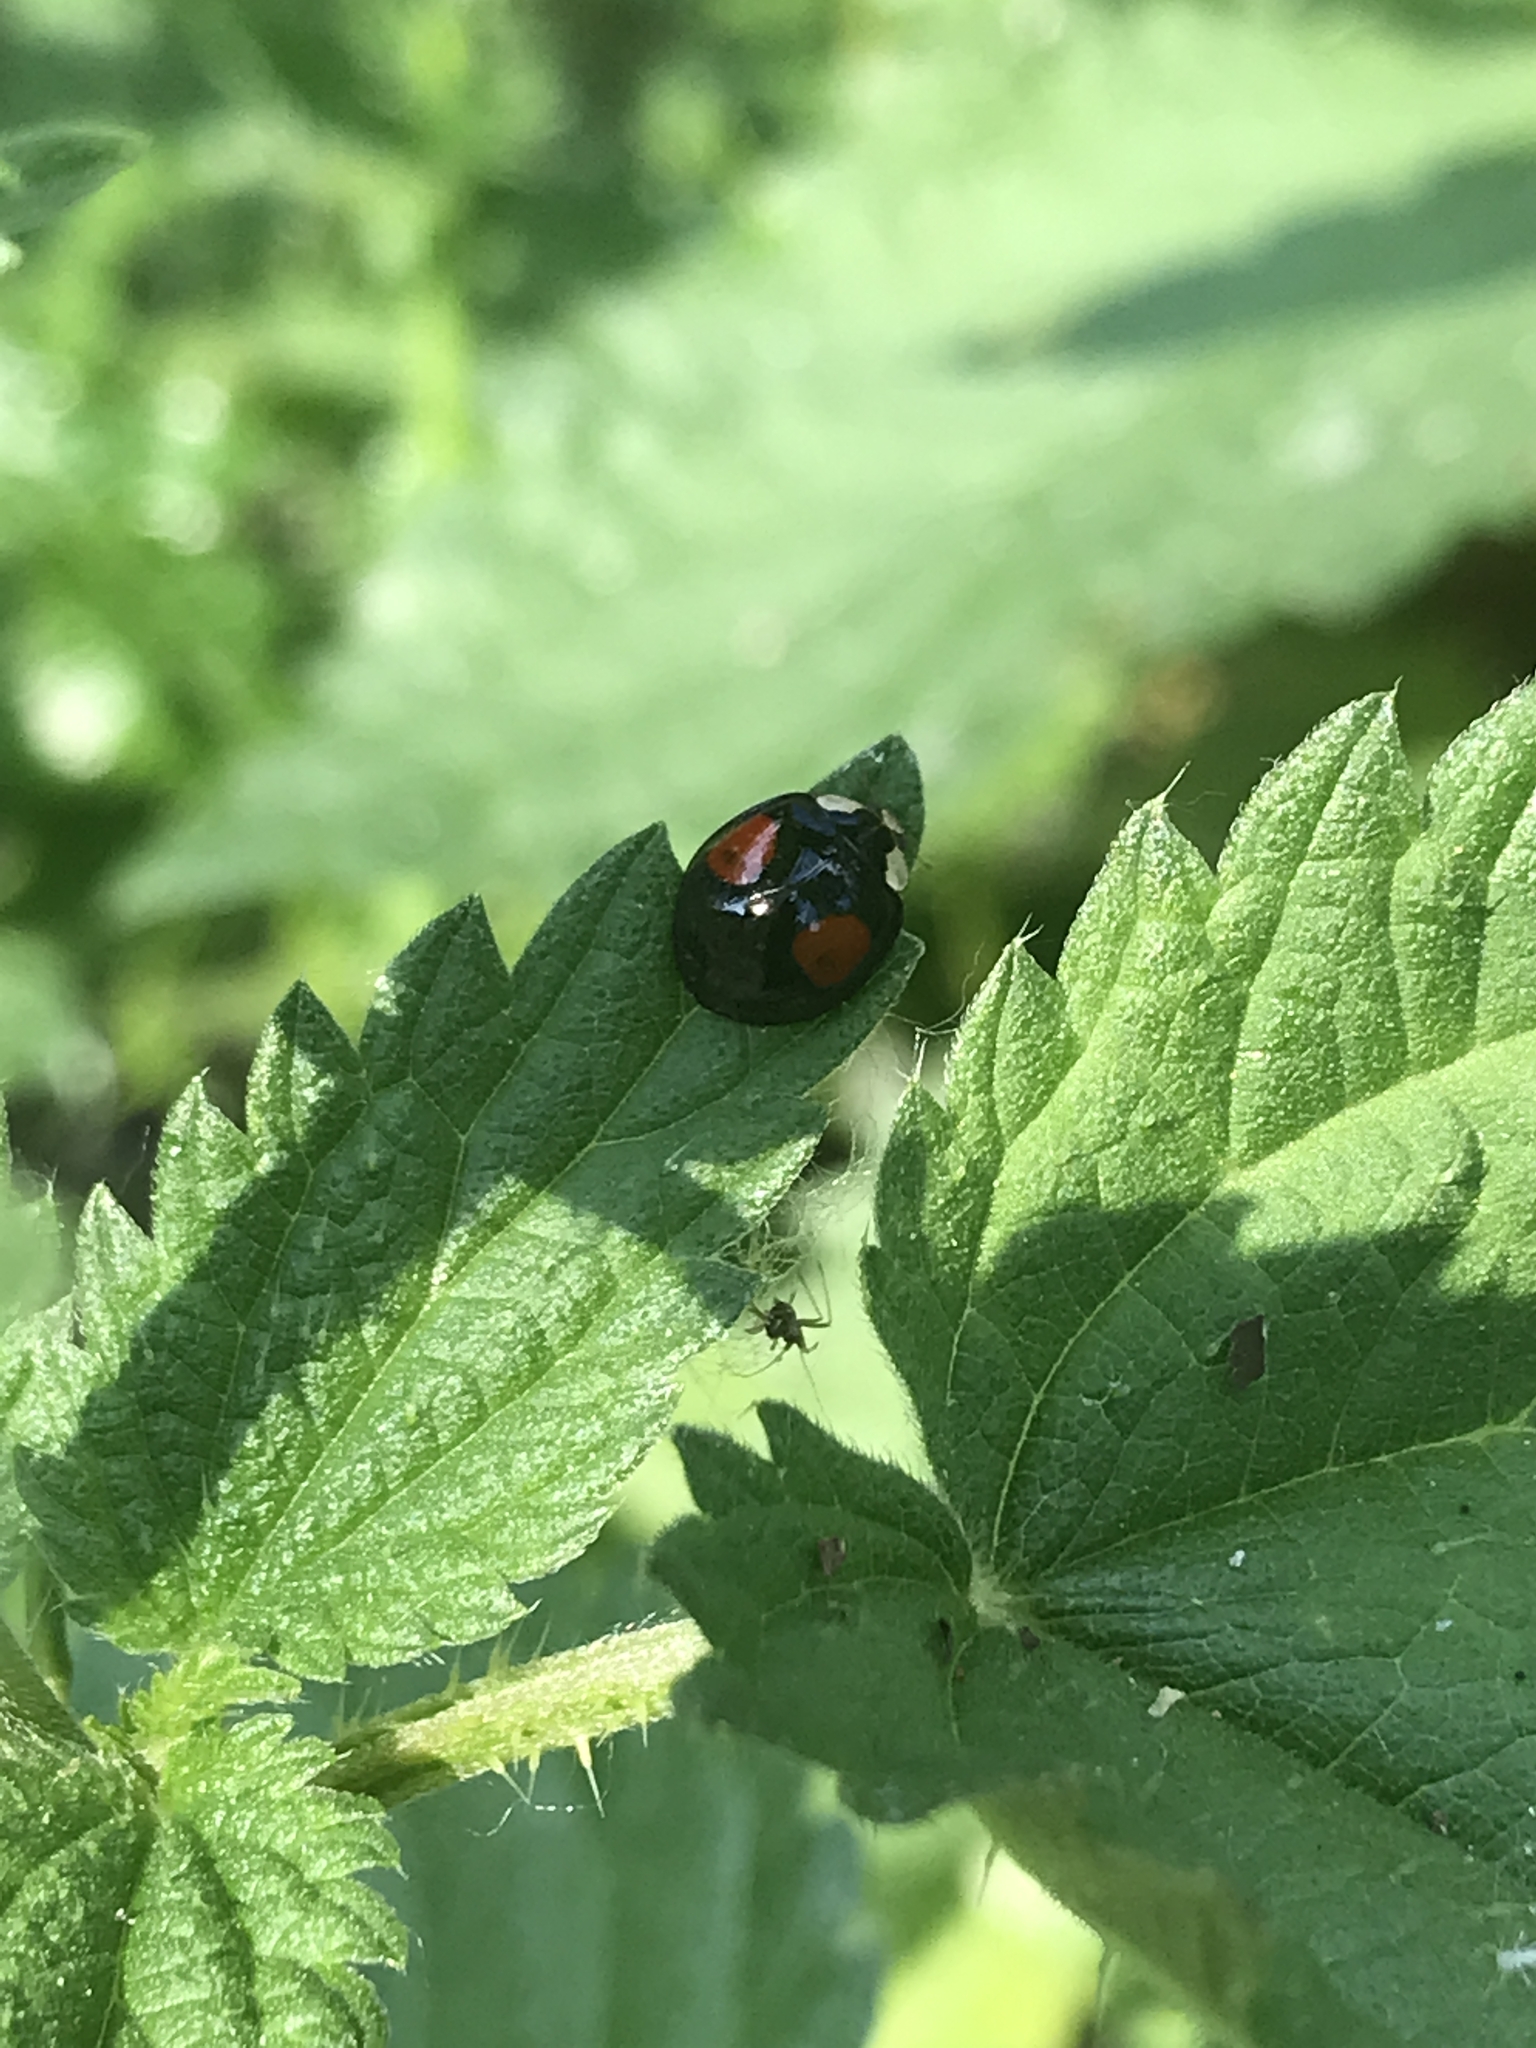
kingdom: Animalia
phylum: Arthropoda
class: Insecta
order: Coleoptera
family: Coccinellidae
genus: Harmonia
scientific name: Harmonia axyridis
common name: Harlequin ladybird
